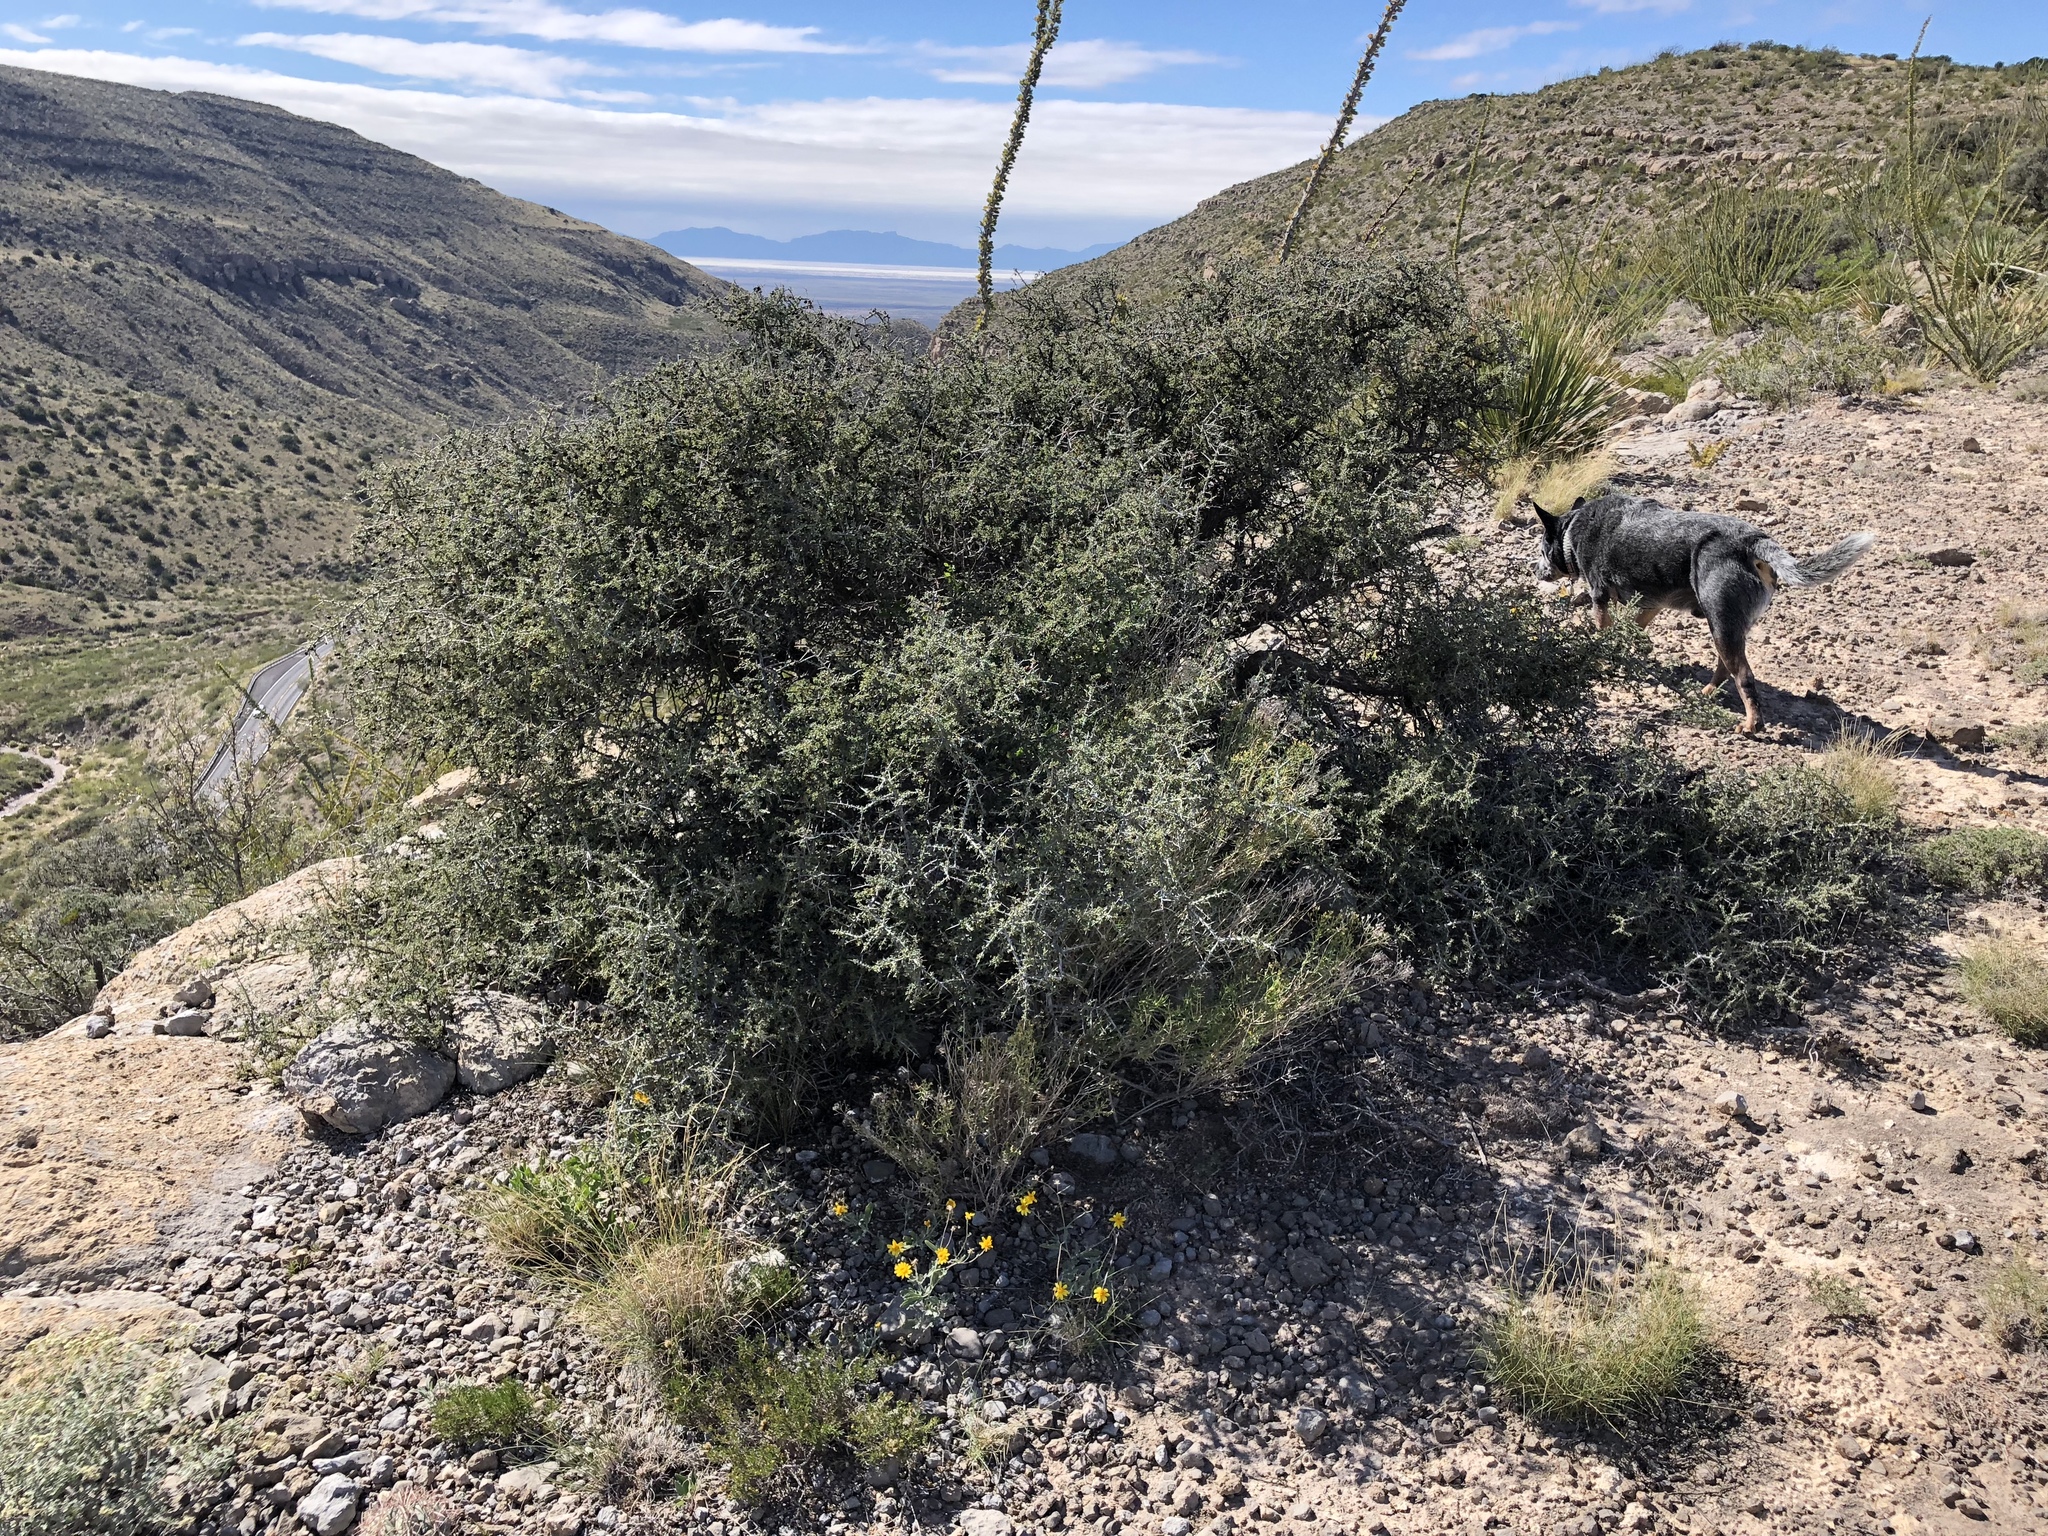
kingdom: Plantae
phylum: Tracheophyta
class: Magnoliopsida
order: Rosales
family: Rhamnaceae
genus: Condalia
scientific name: Condalia warnockii
